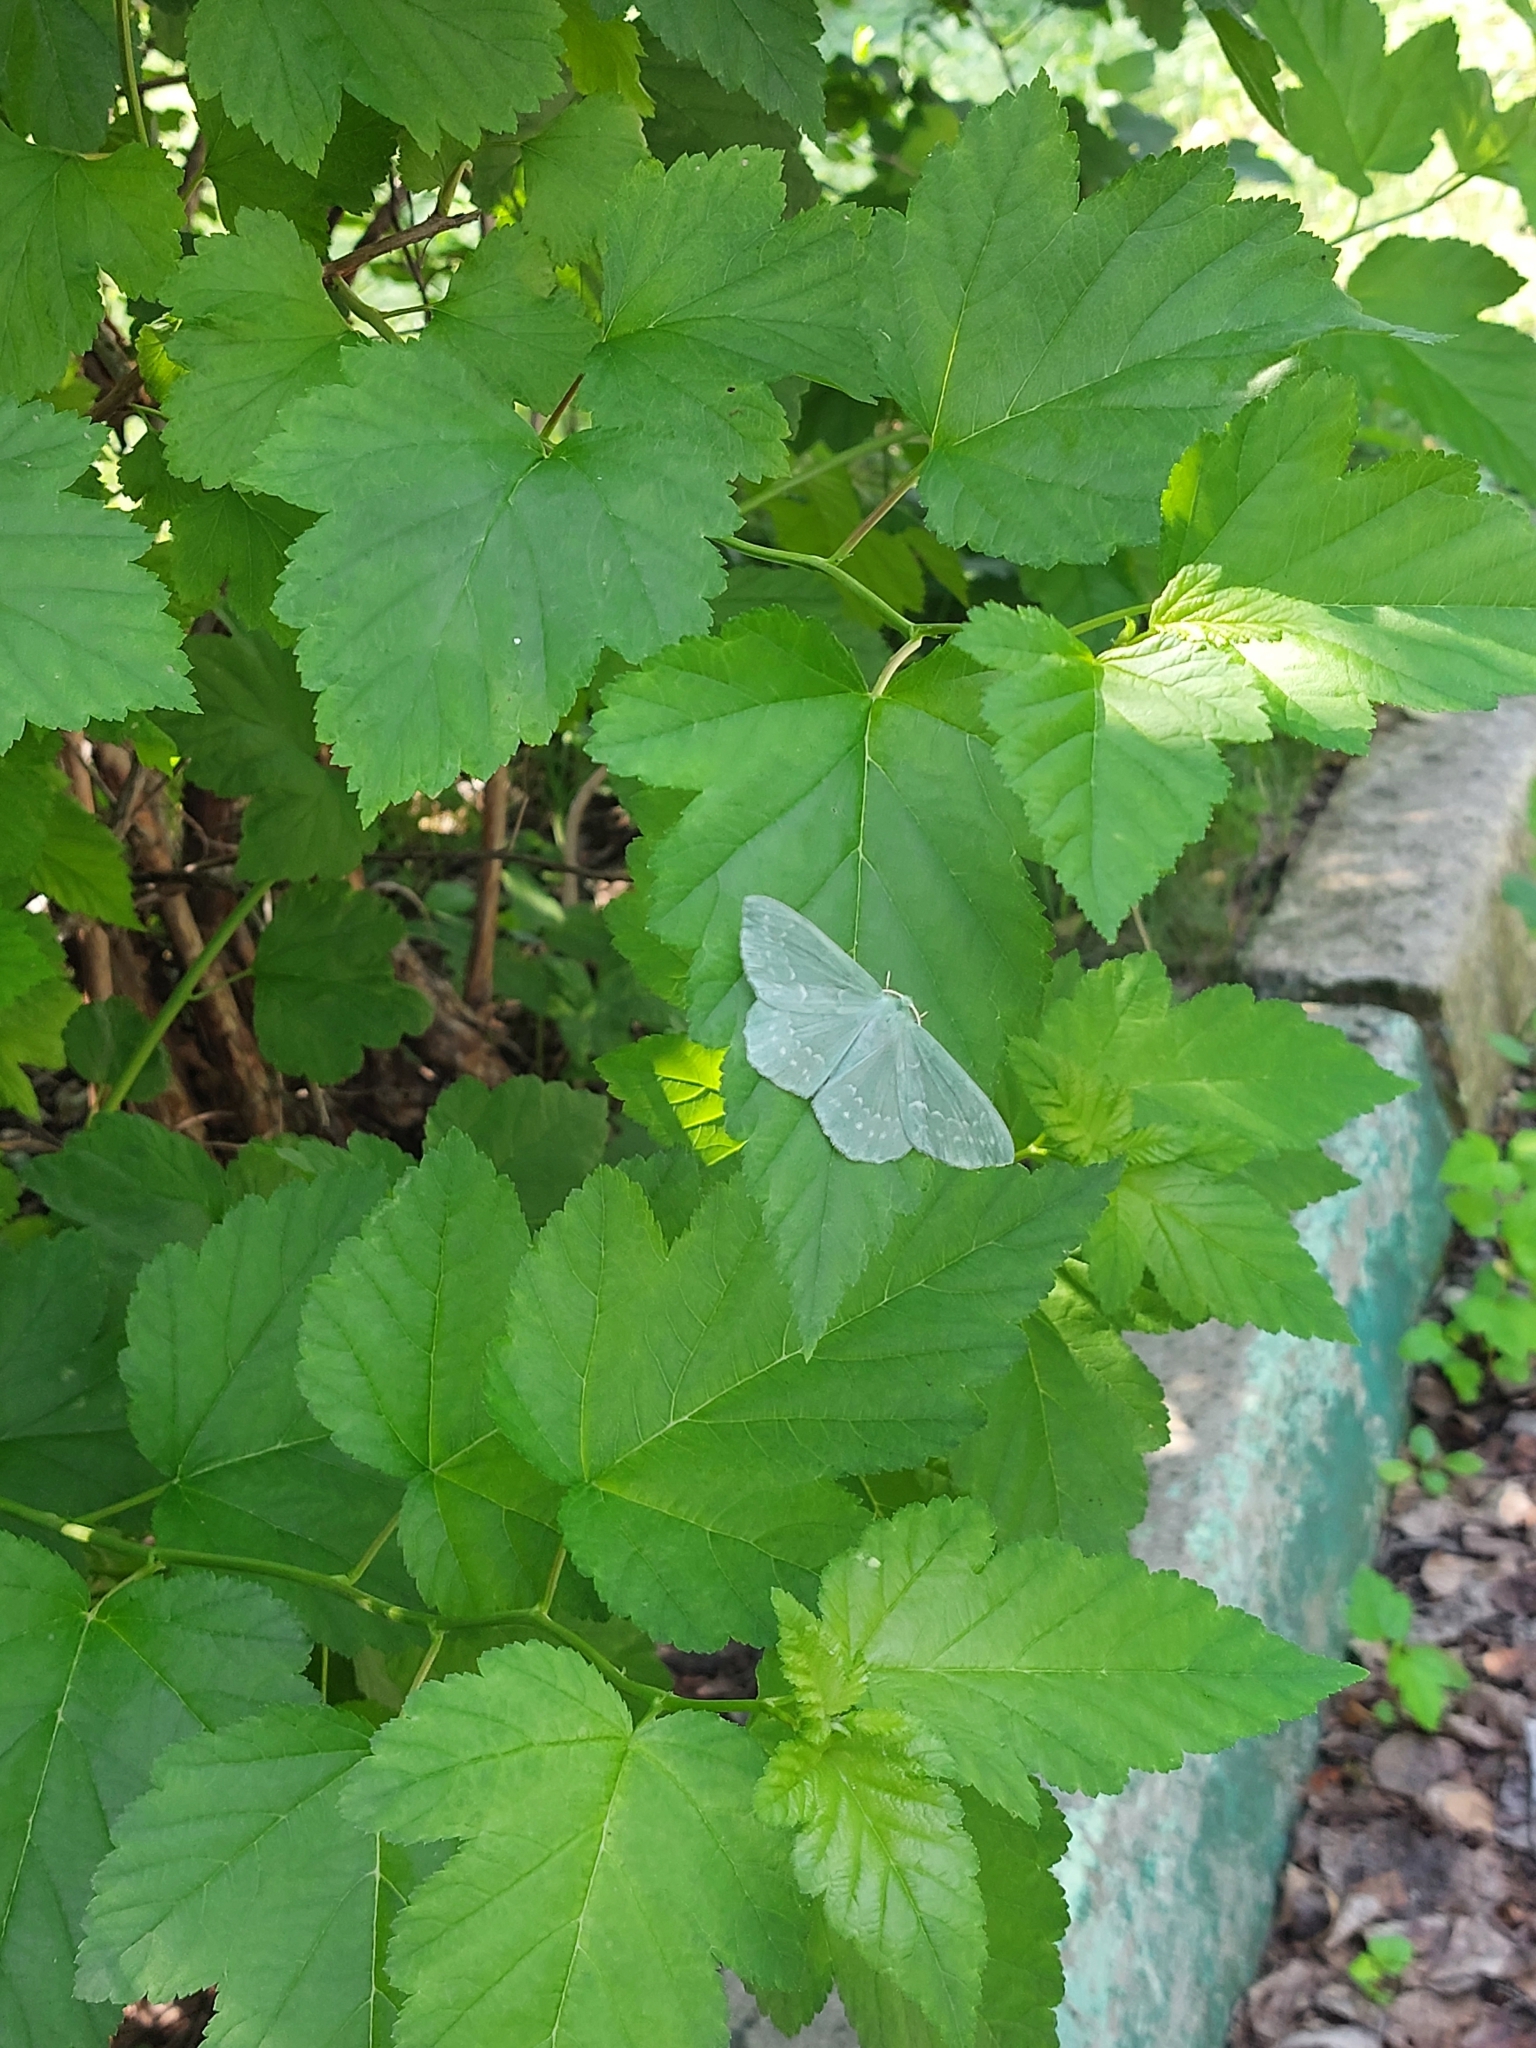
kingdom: Animalia
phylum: Arthropoda
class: Insecta
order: Lepidoptera
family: Geometridae
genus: Geometra
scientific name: Geometra papilionaria
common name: Large emerald
